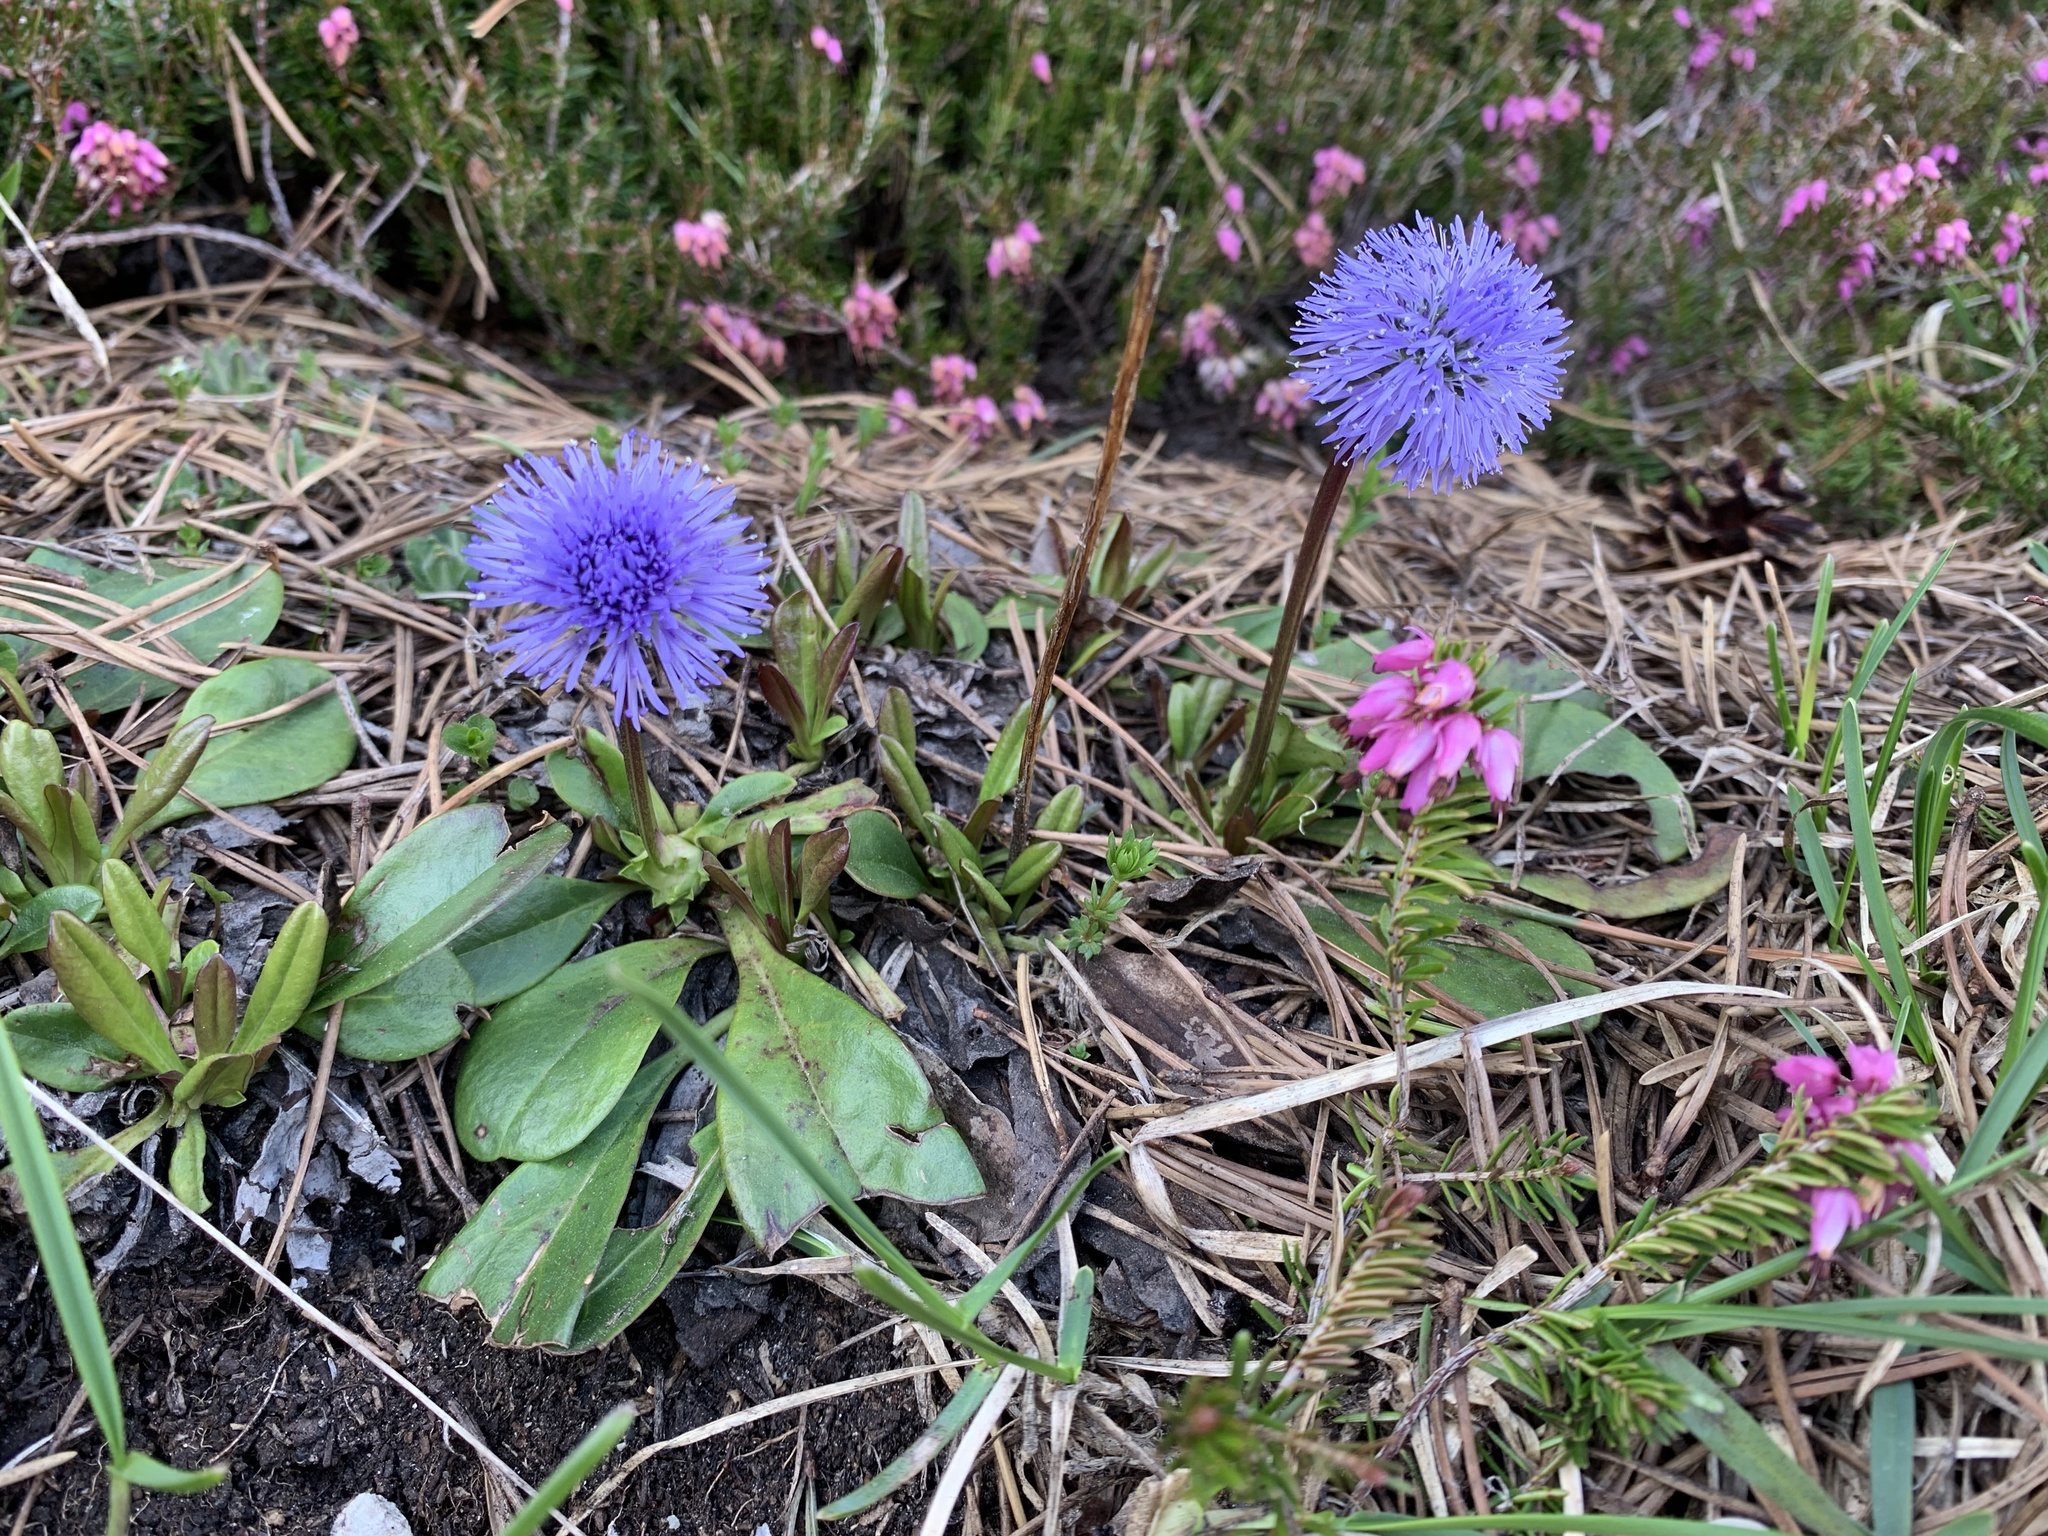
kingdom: Plantae
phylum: Tracheophyta
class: Magnoliopsida
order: Lamiales
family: Plantaginaceae
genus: Globularia
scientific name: Globularia nudicaulis
